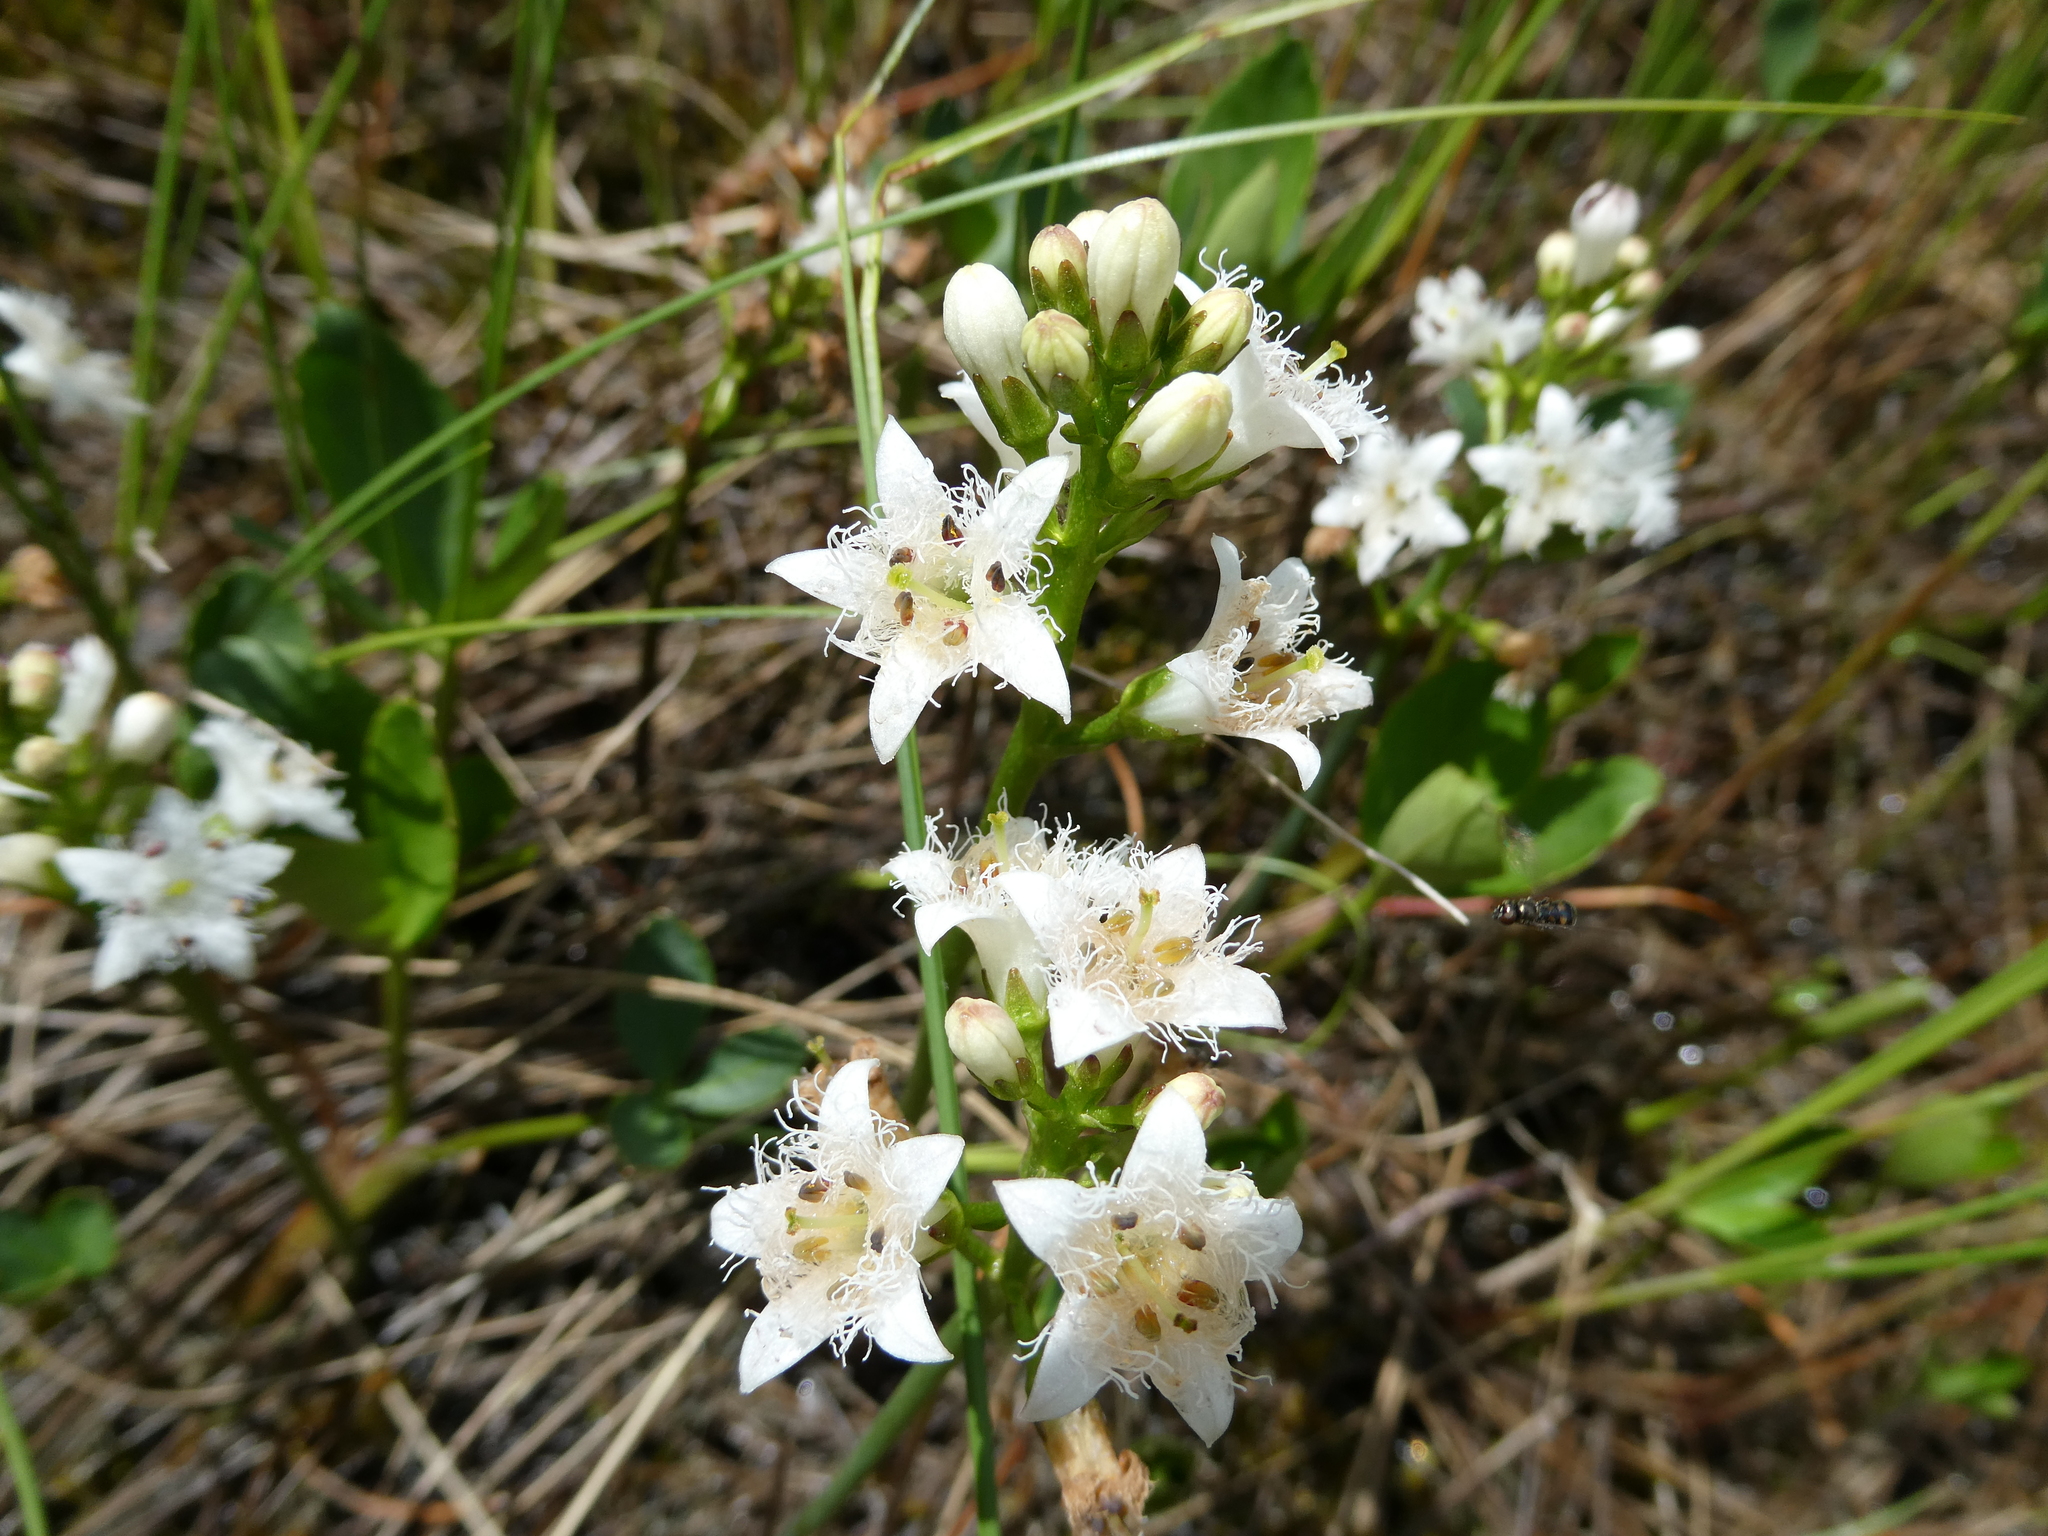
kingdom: Plantae
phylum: Tracheophyta
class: Magnoliopsida
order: Asterales
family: Menyanthaceae
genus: Menyanthes
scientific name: Menyanthes trifoliata
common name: Bogbean
